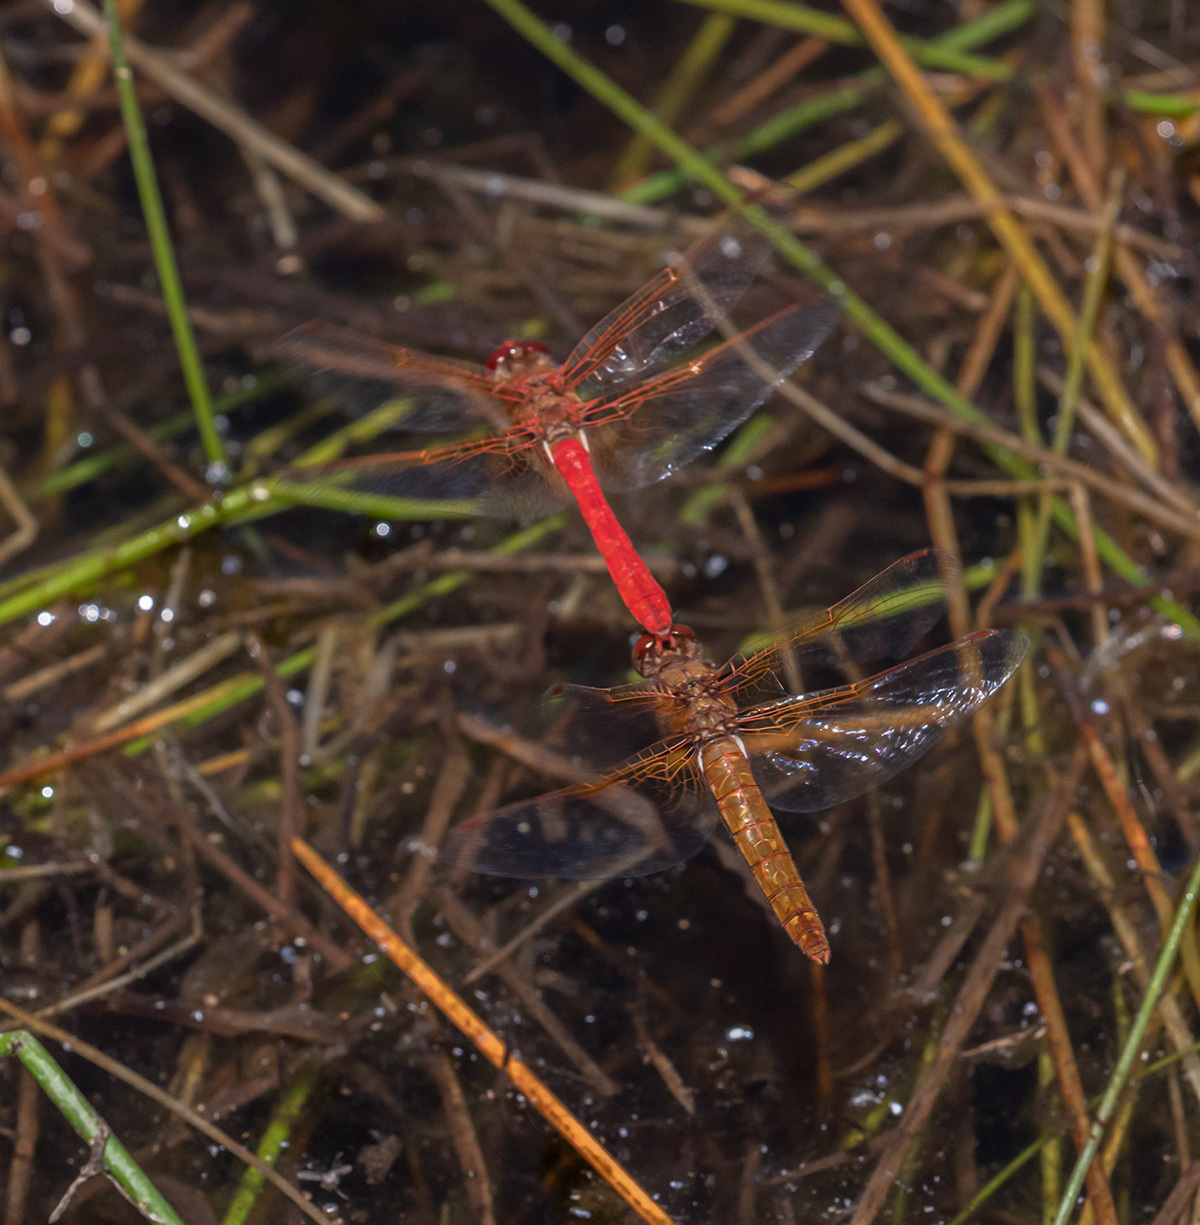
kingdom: Animalia
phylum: Arthropoda
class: Insecta
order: Odonata
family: Libellulidae
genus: Sympetrum
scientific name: Sympetrum illotum
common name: Cardinal meadowhawk
